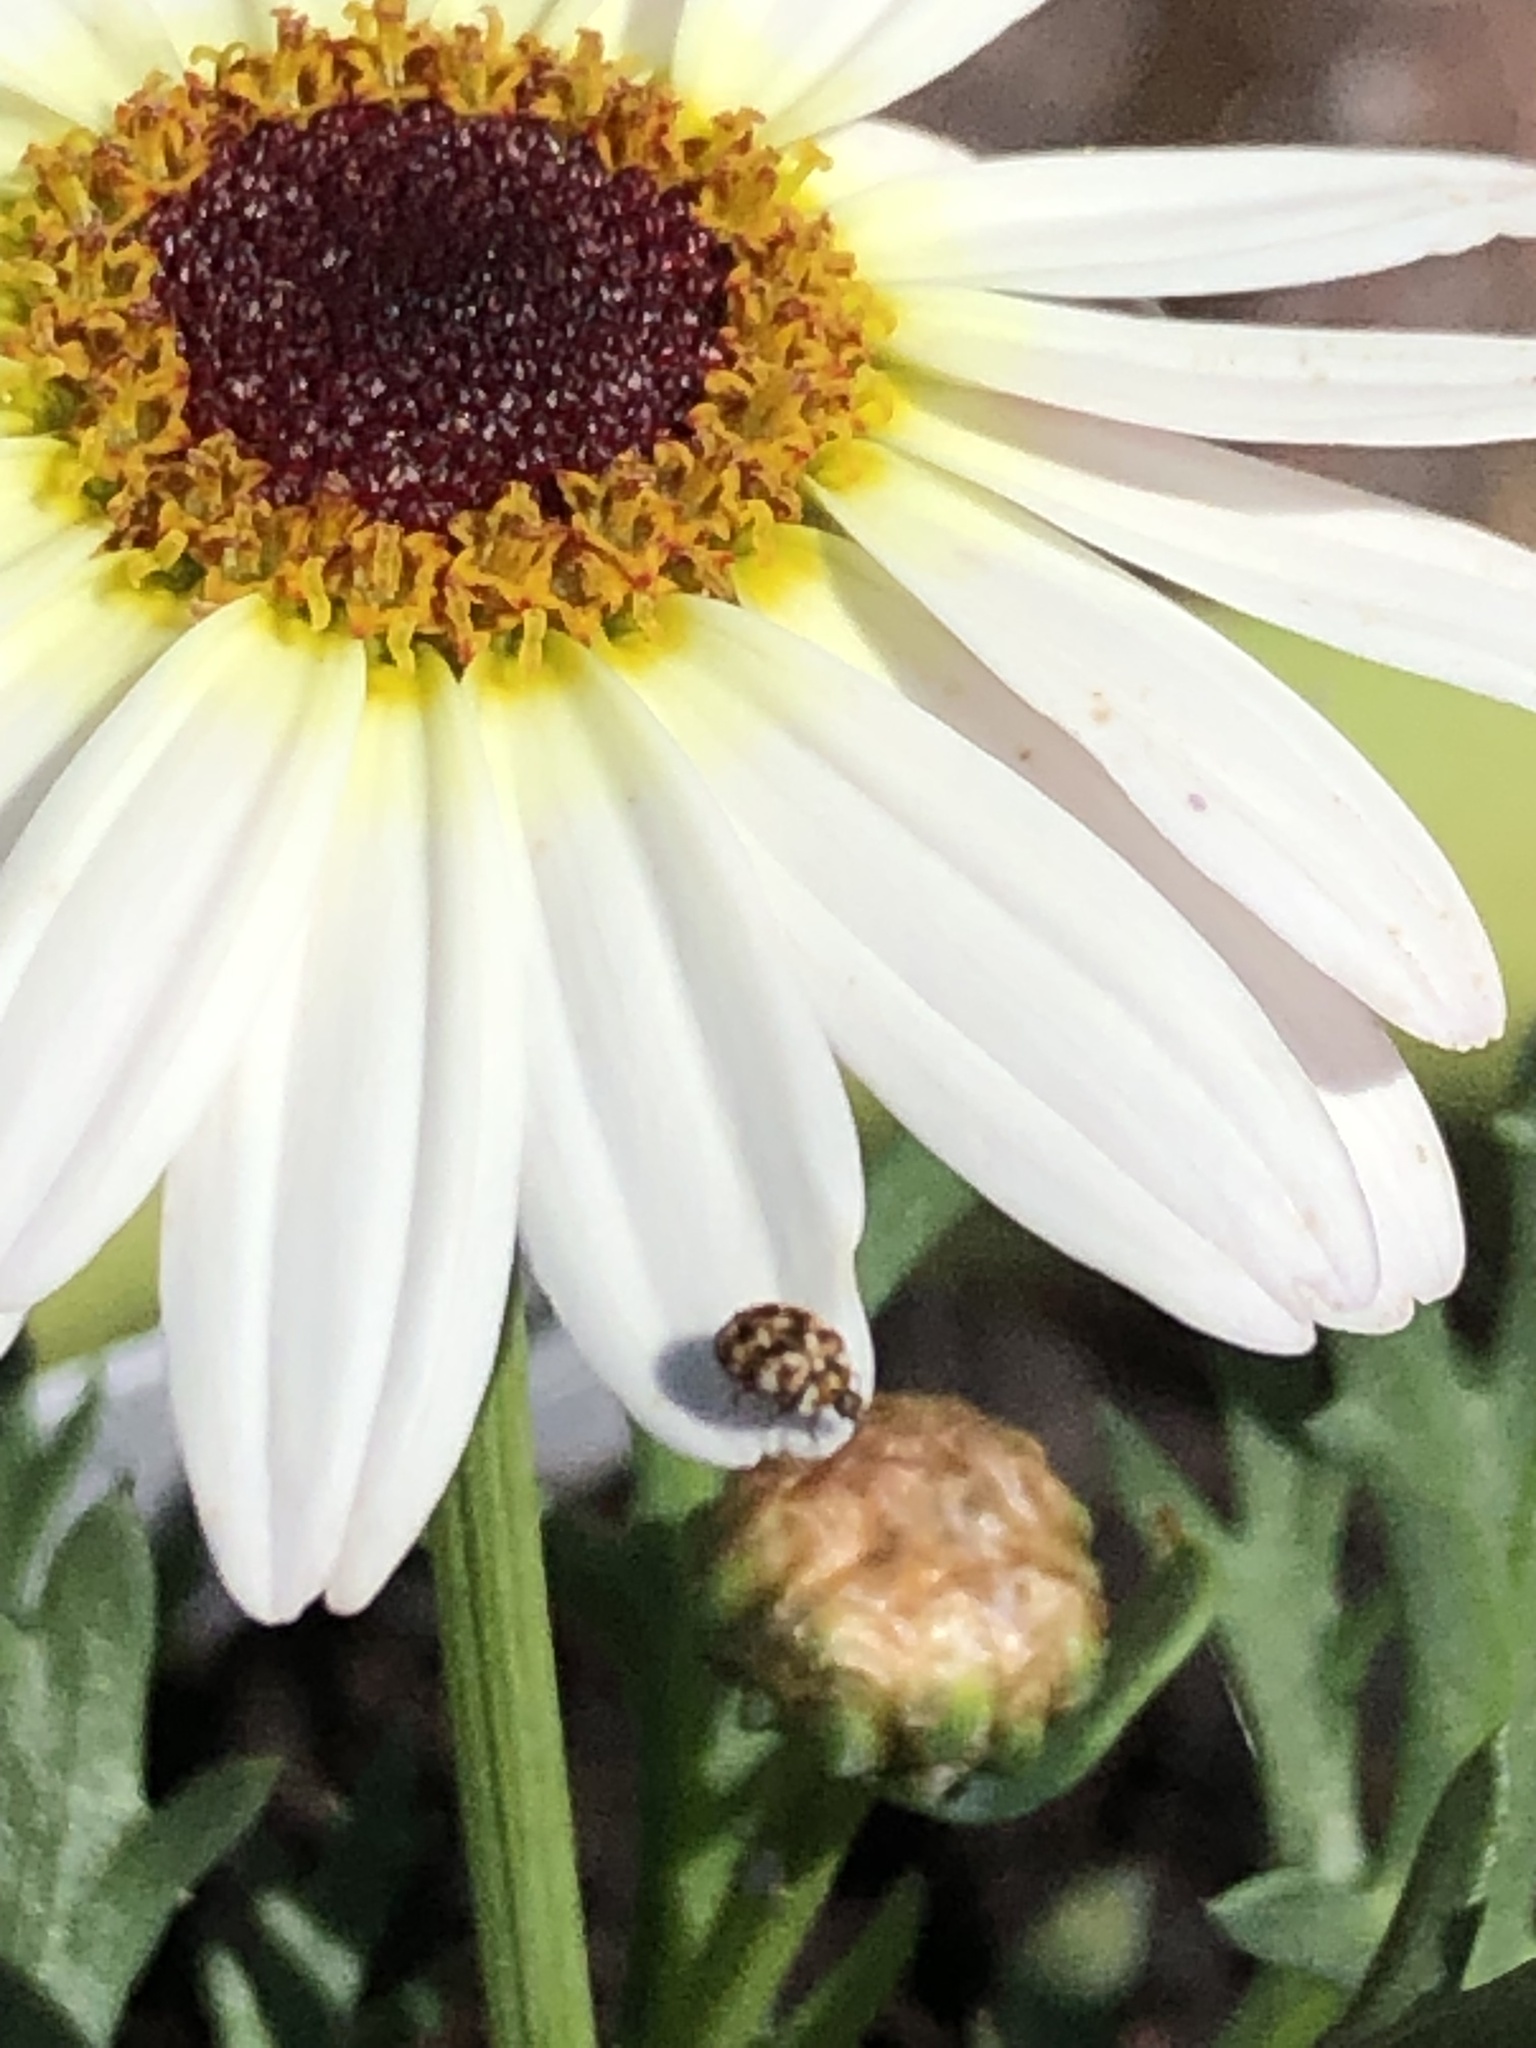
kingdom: Animalia
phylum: Arthropoda
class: Insecta
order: Coleoptera
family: Dermestidae
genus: Anthrenus
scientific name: Anthrenus verbasci
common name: Varied carpet beetle
